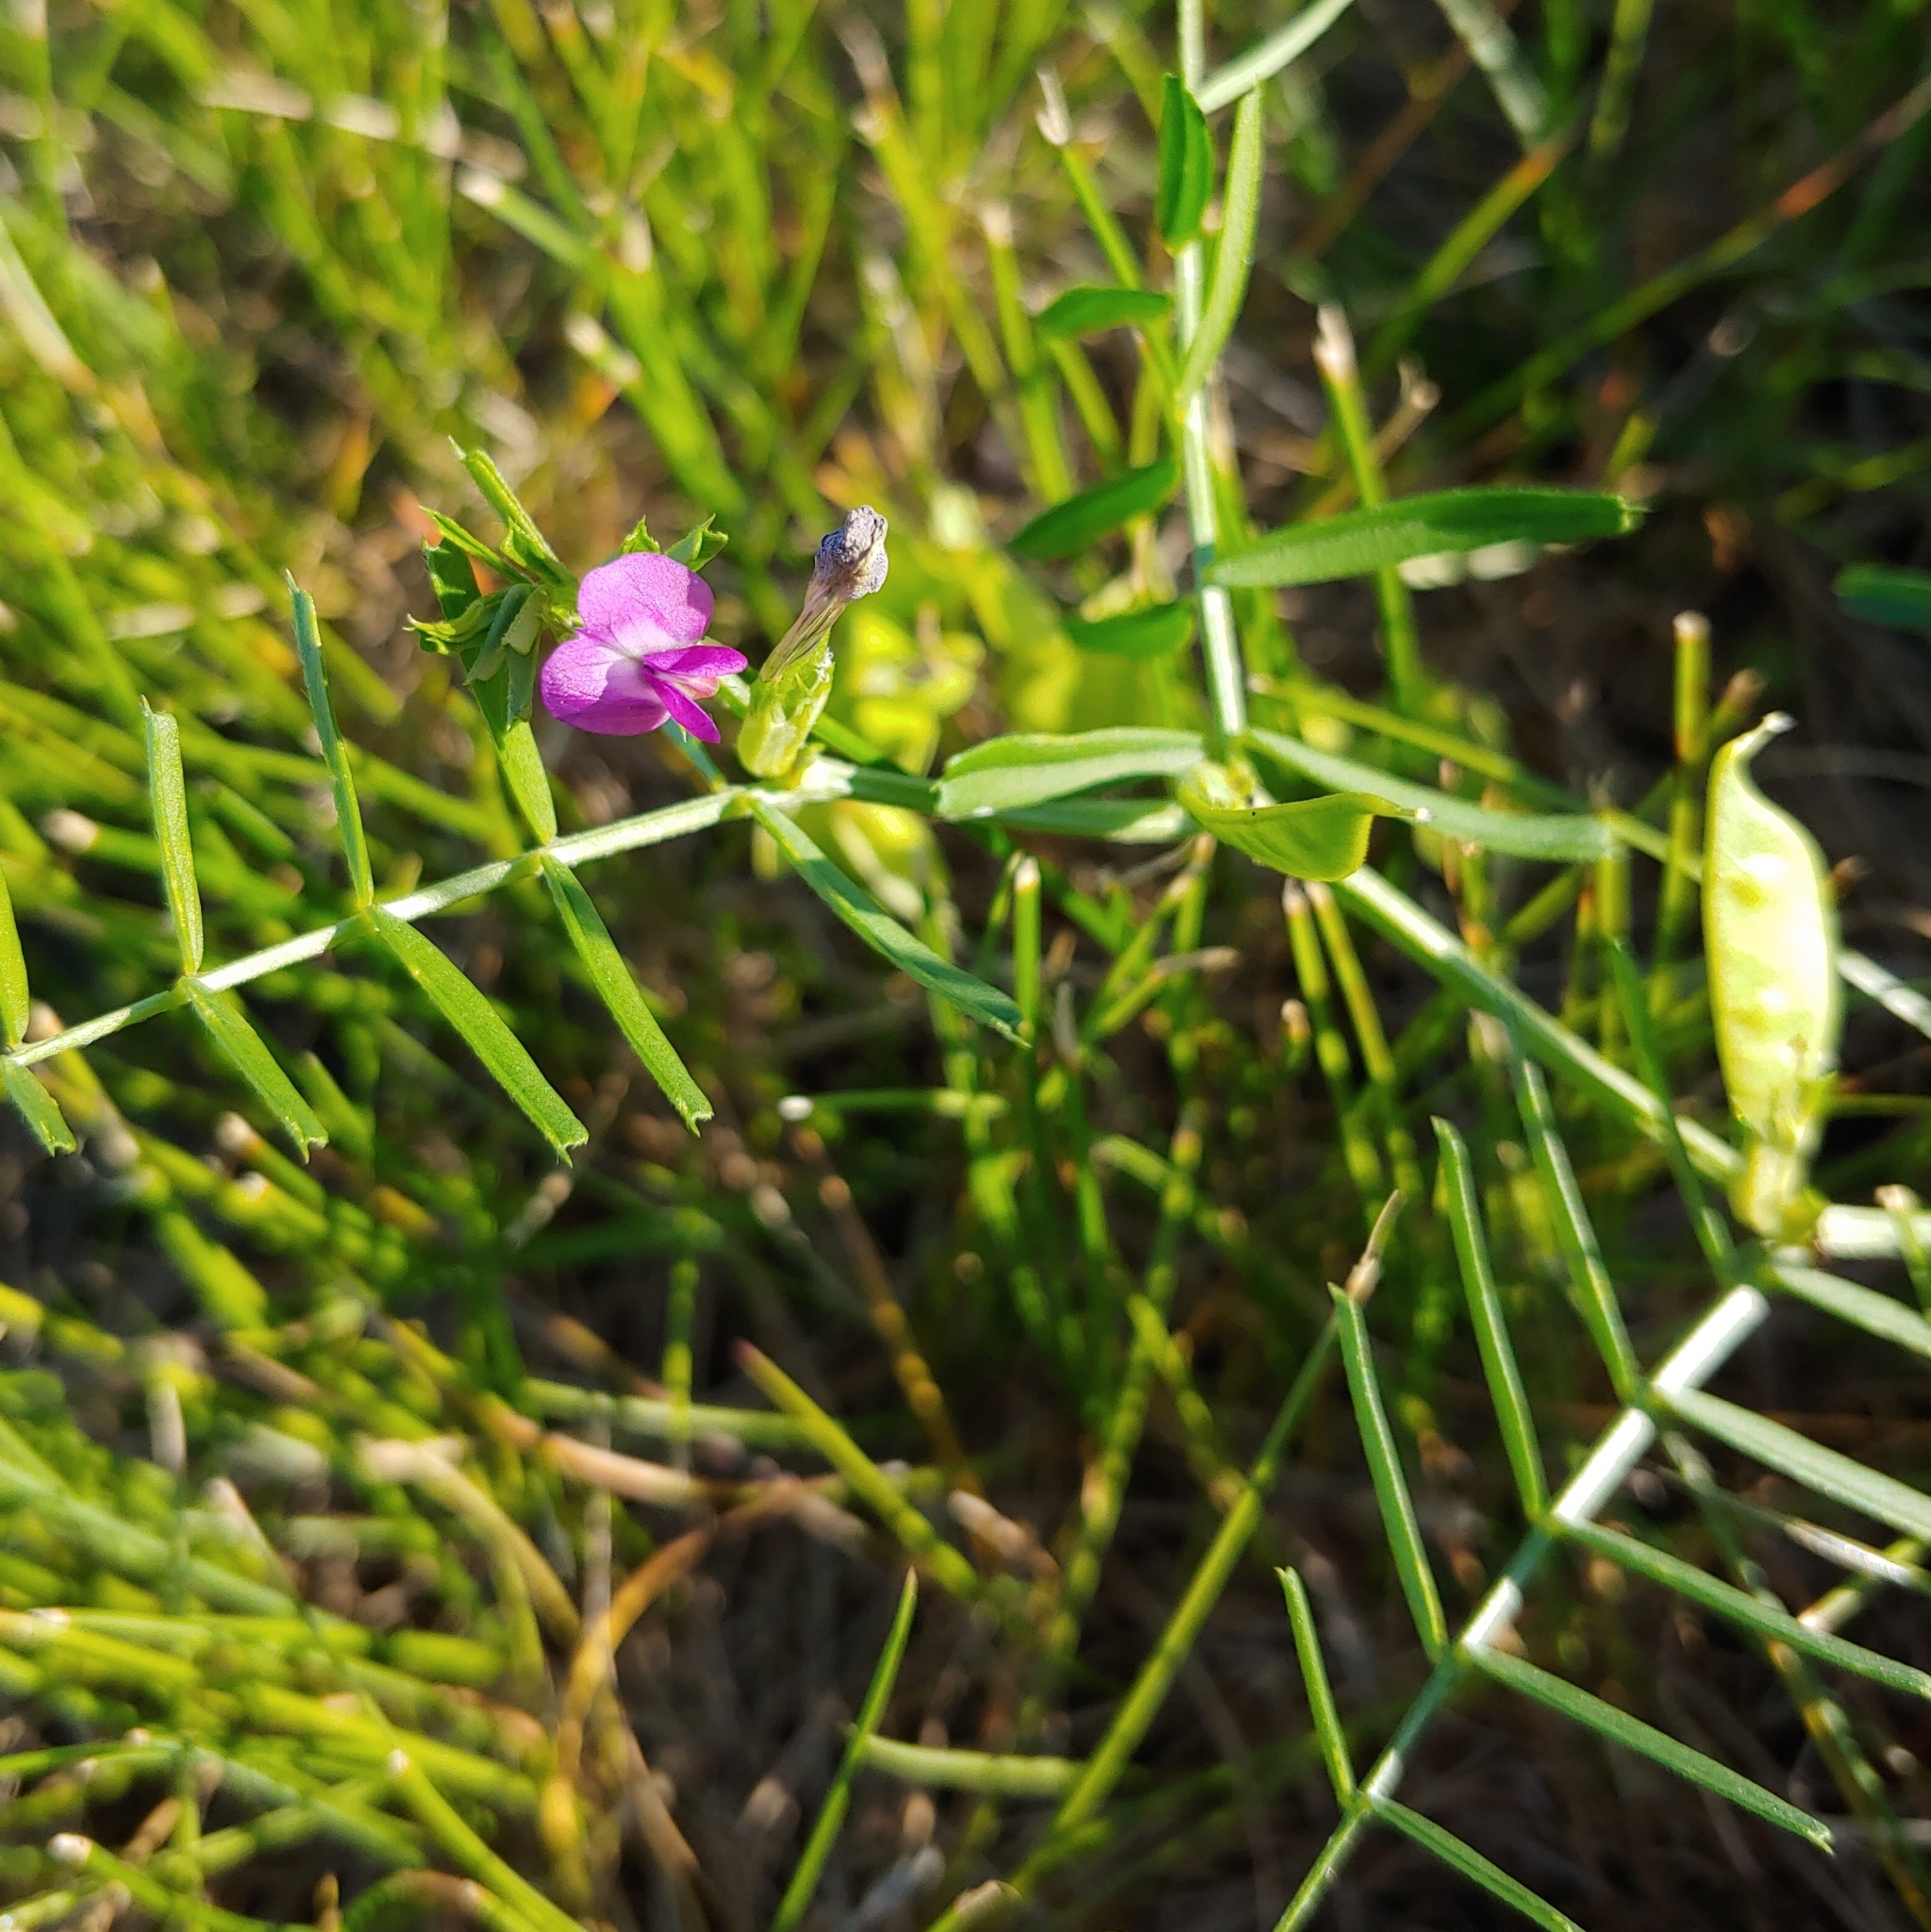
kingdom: Plantae
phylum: Tracheophyta
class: Magnoliopsida
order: Fabales
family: Fabaceae
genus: Vicia
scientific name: Vicia sativa
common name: Garden vetch
